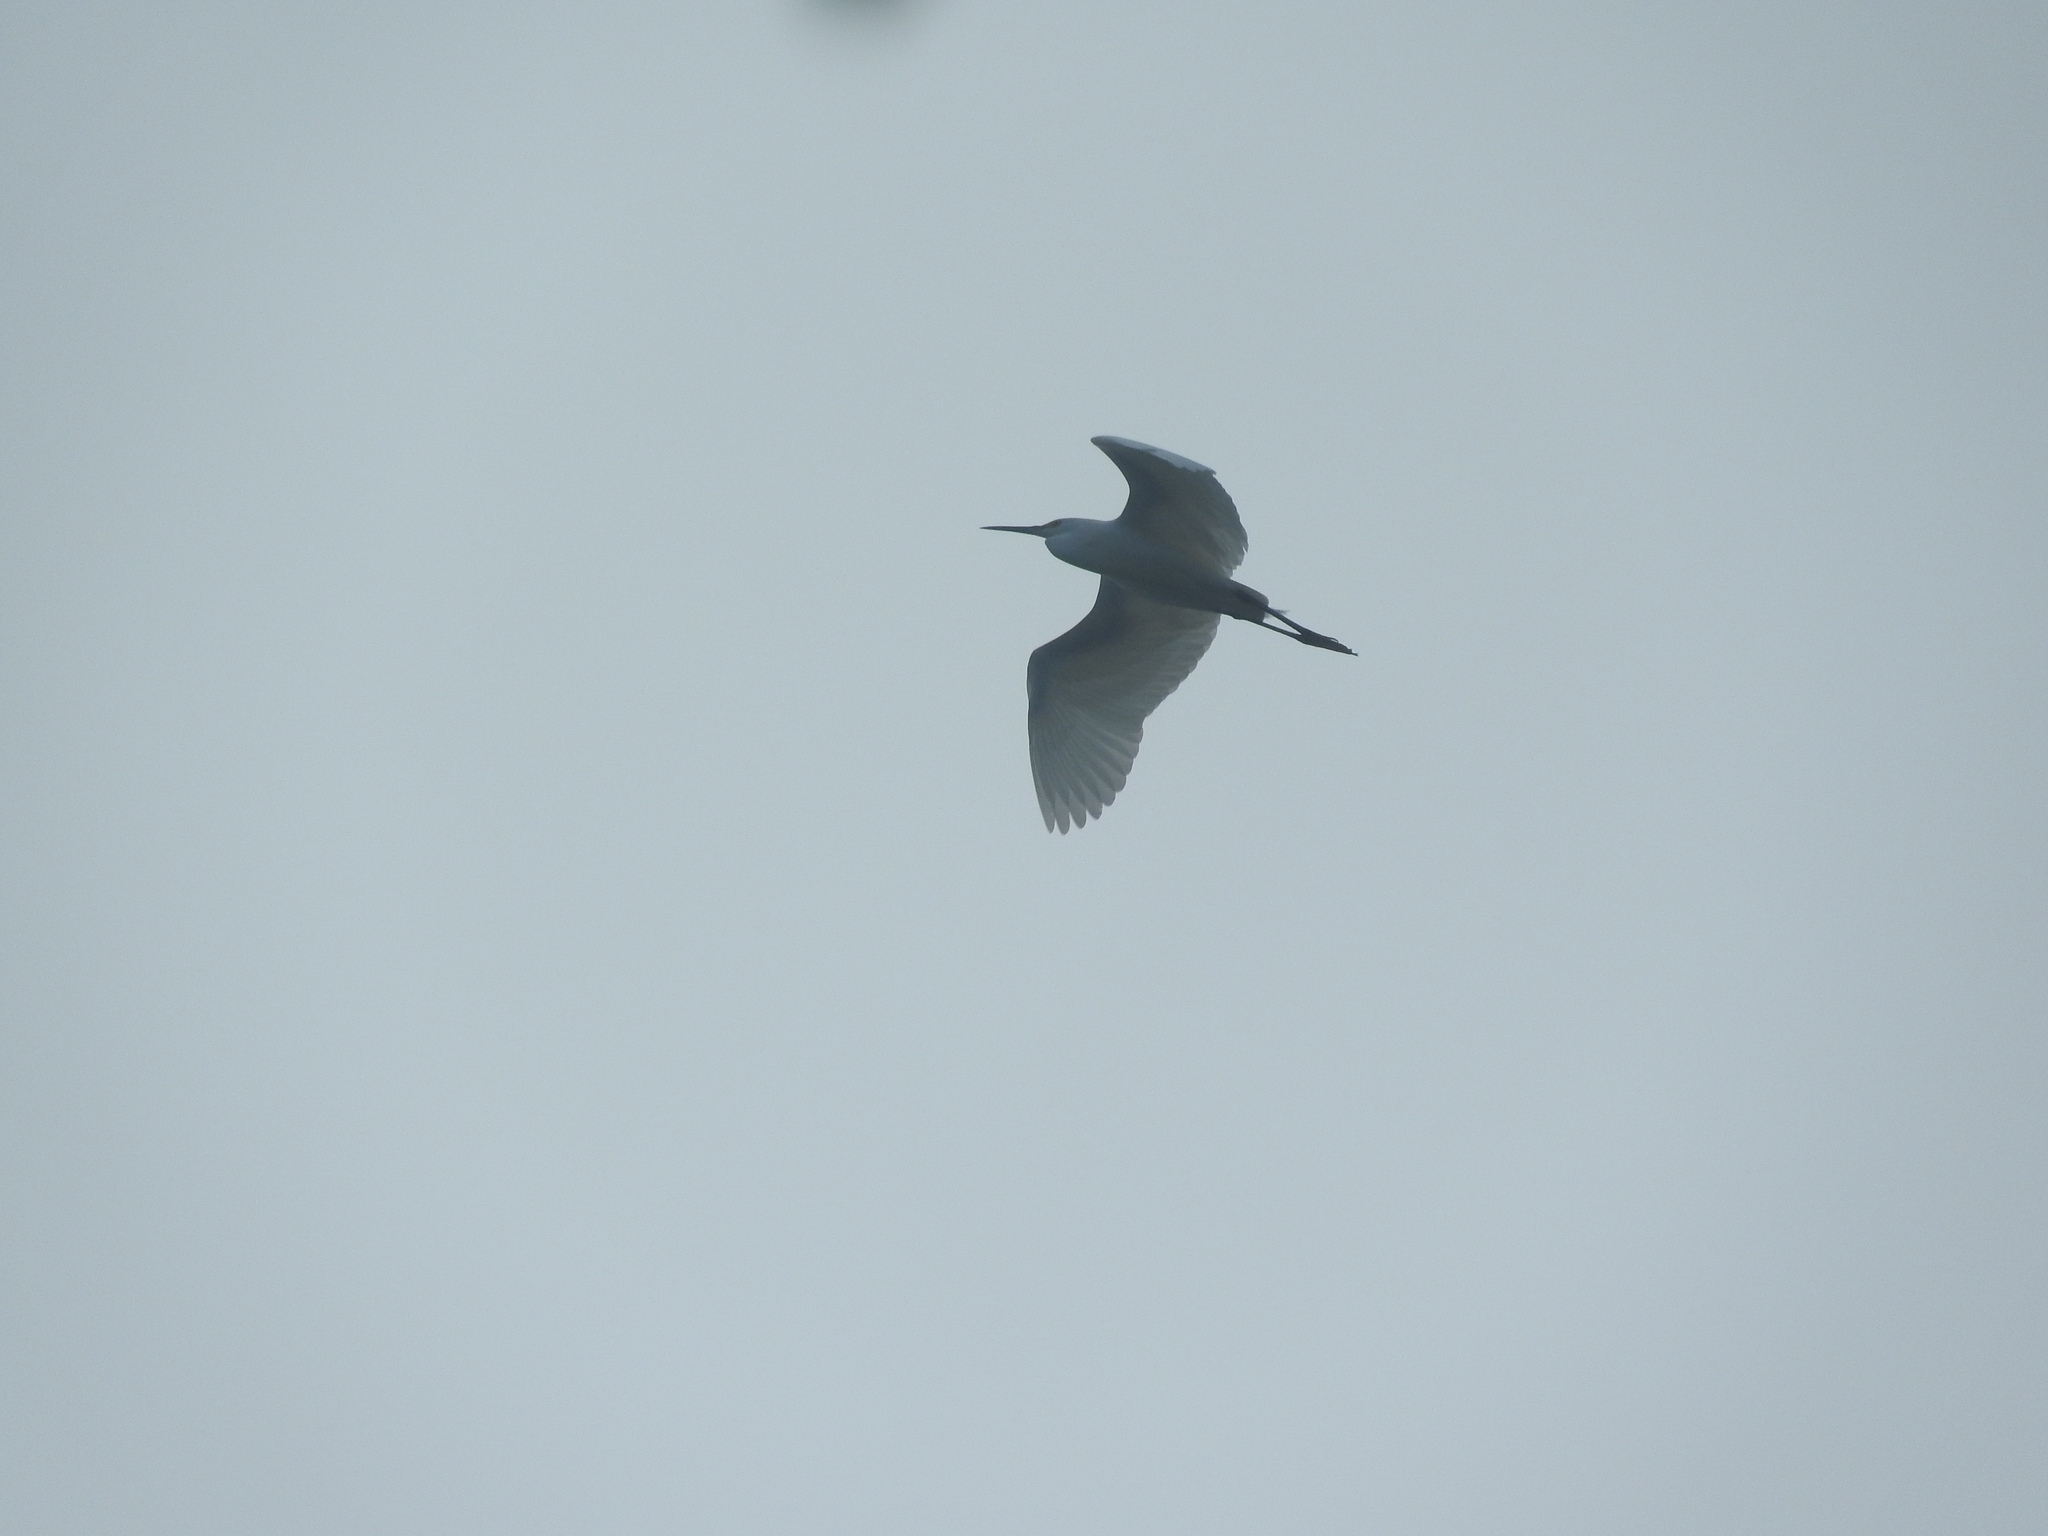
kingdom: Animalia
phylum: Chordata
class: Aves
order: Pelecaniformes
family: Ardeidae
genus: Egretta
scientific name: Egretta thula
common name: Snowy egret
